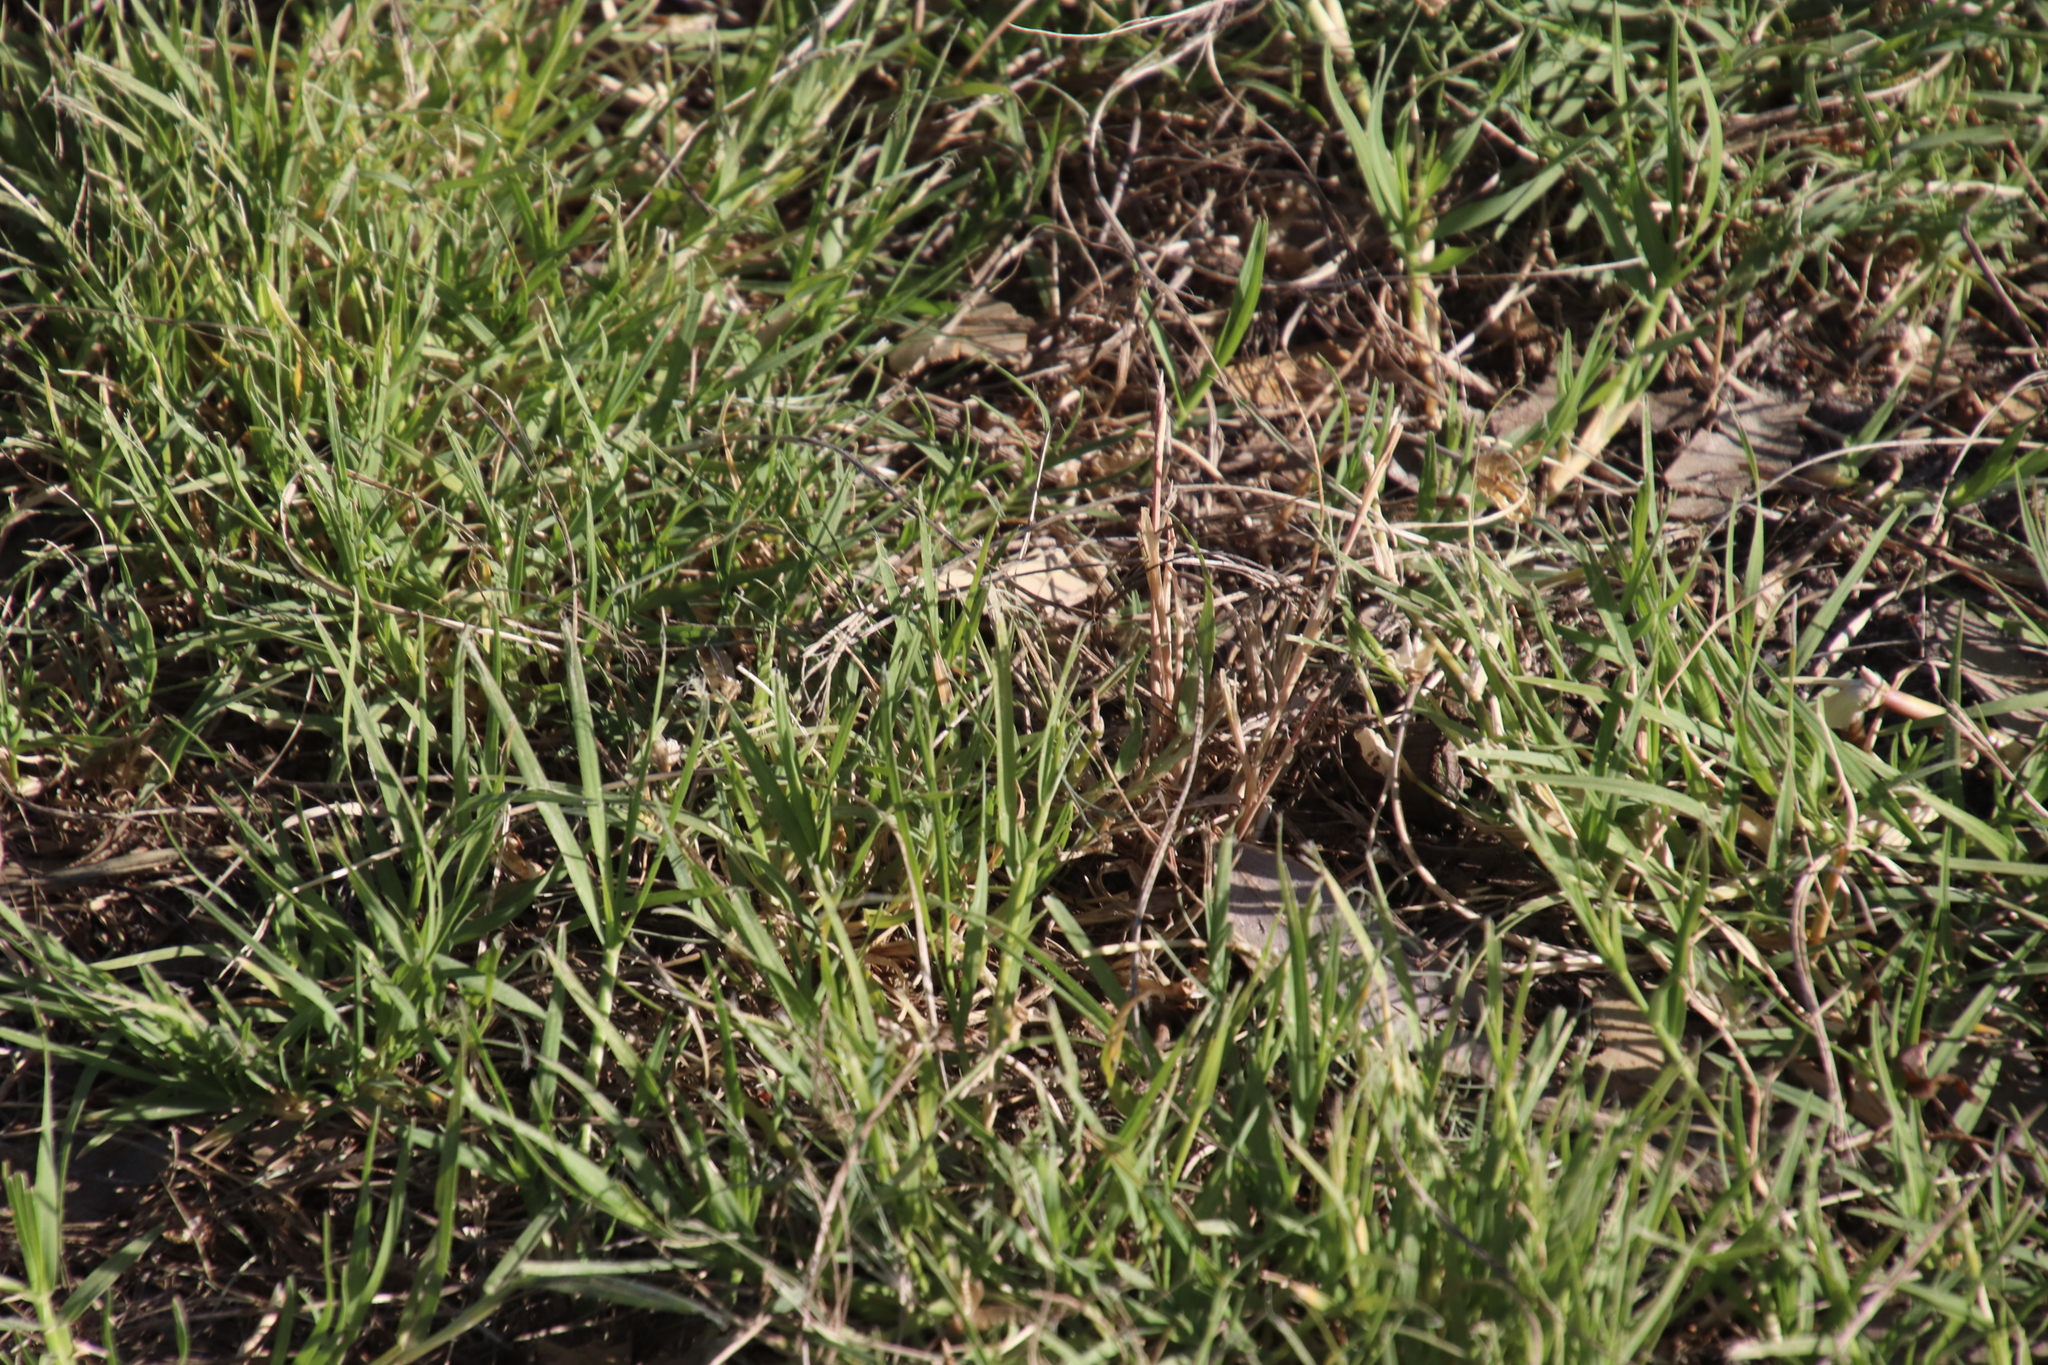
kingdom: Plantae
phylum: Tracheophyta
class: Liliopsida
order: Poales
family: Poaceae
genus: Cynodon
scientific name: Cynodon dactylon
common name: Bermuda grass
